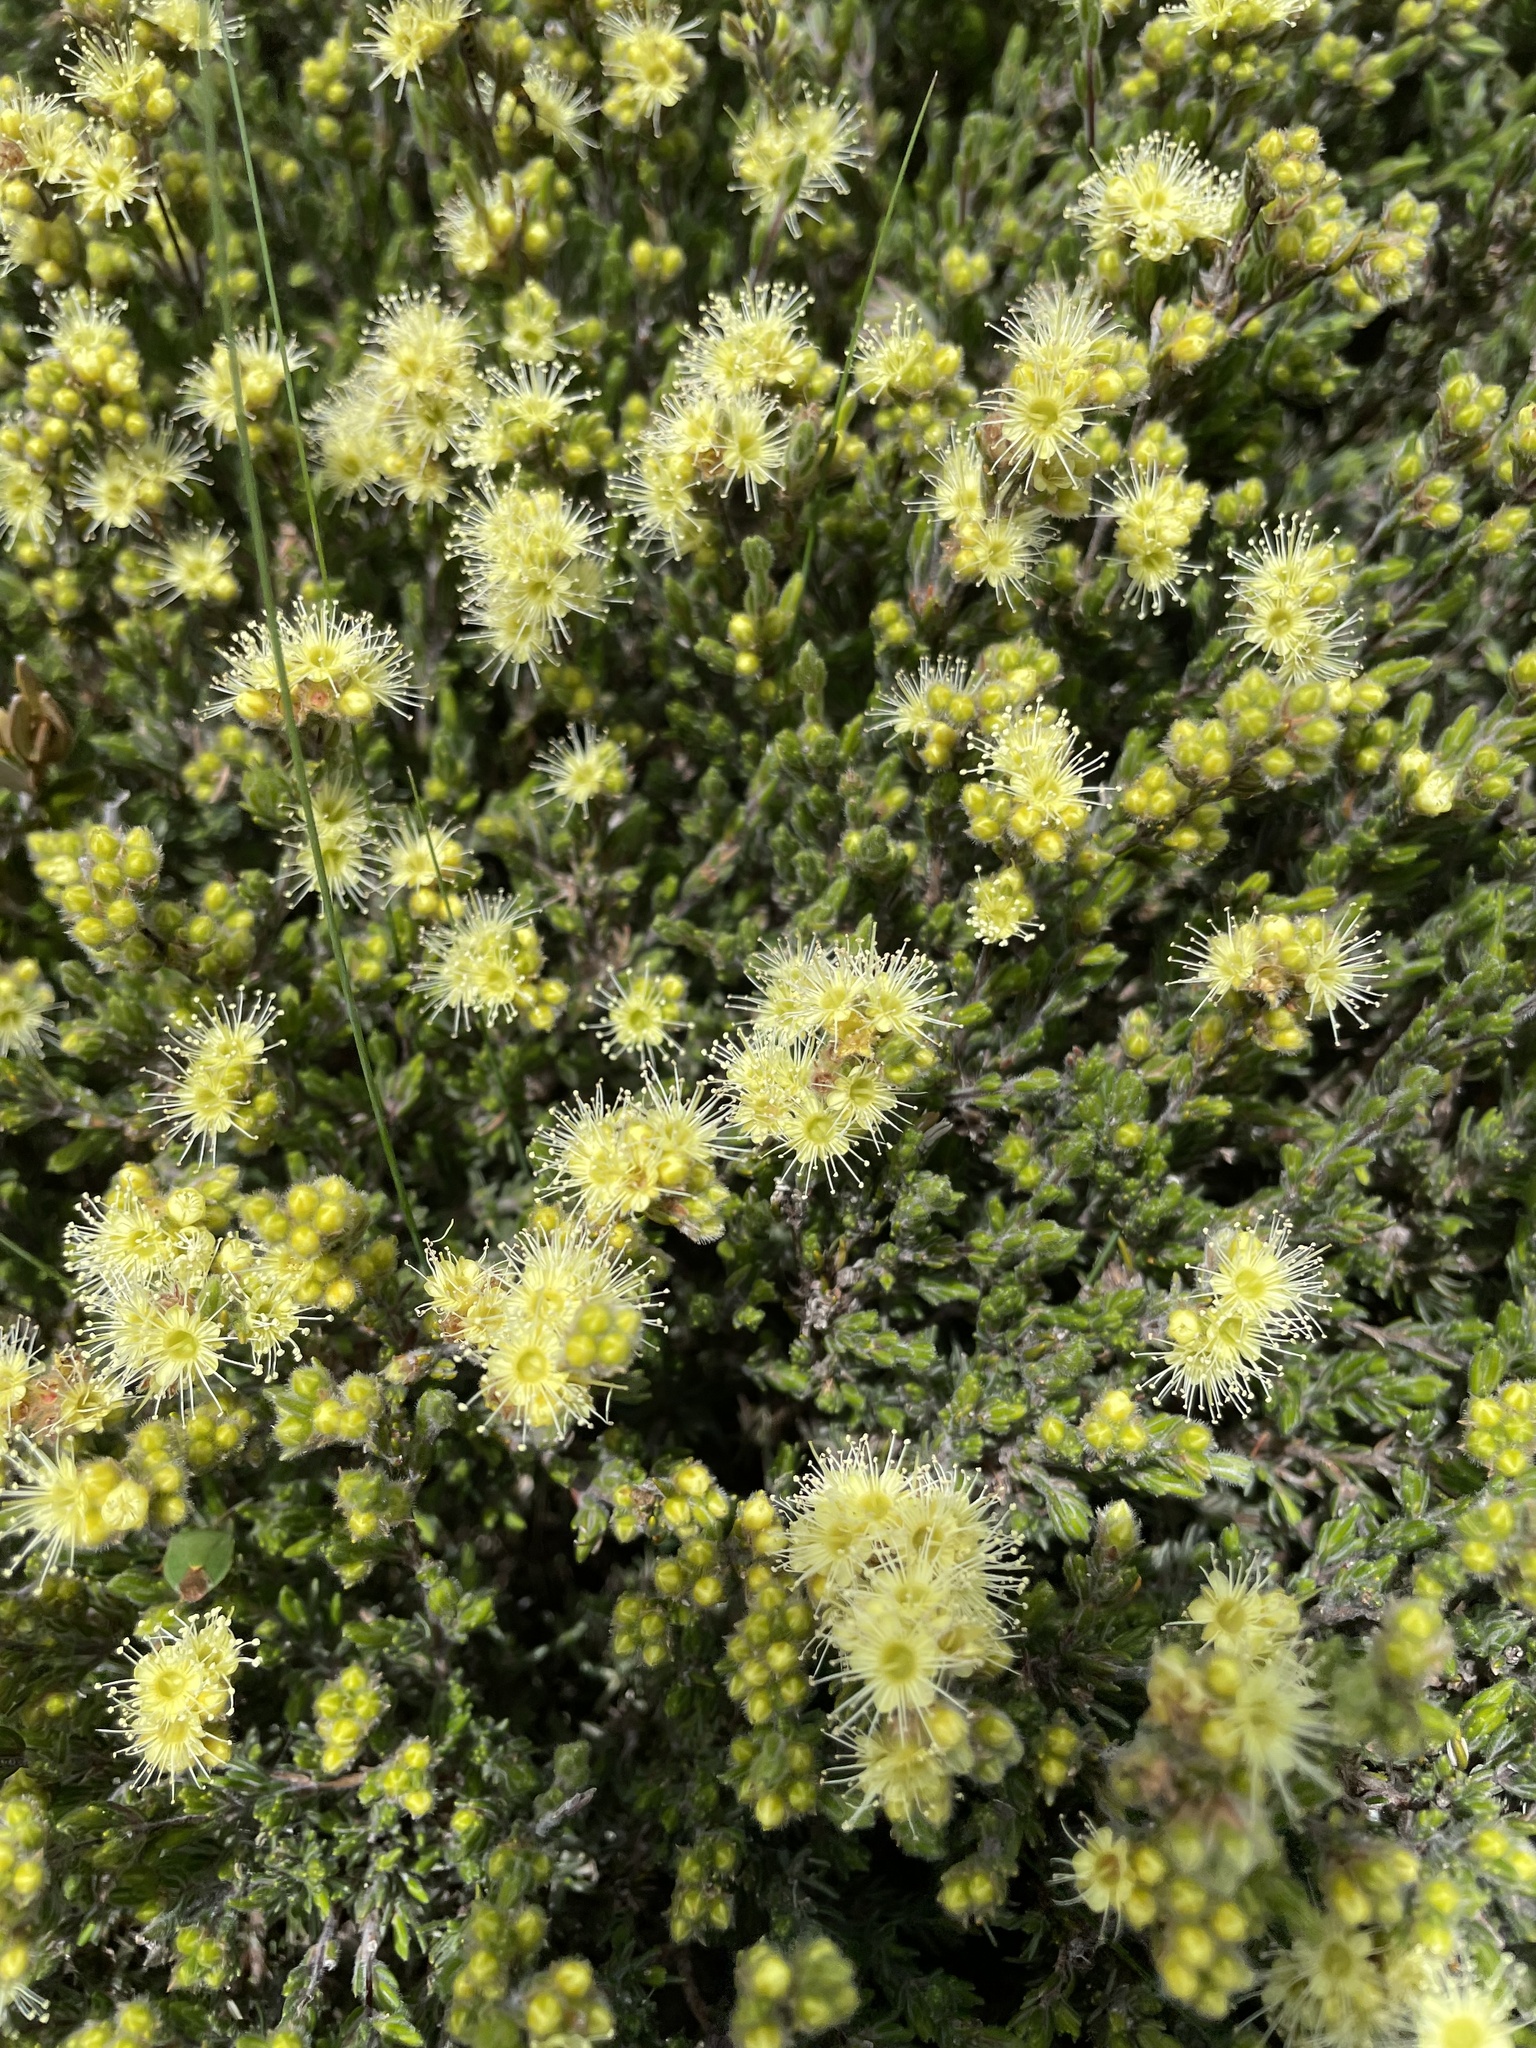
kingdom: Plantae
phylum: Tracheophyta
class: Magnoliopsida
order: Myrtales
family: Myrtaceae
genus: Kunzea
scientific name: Kunzea muelleri
